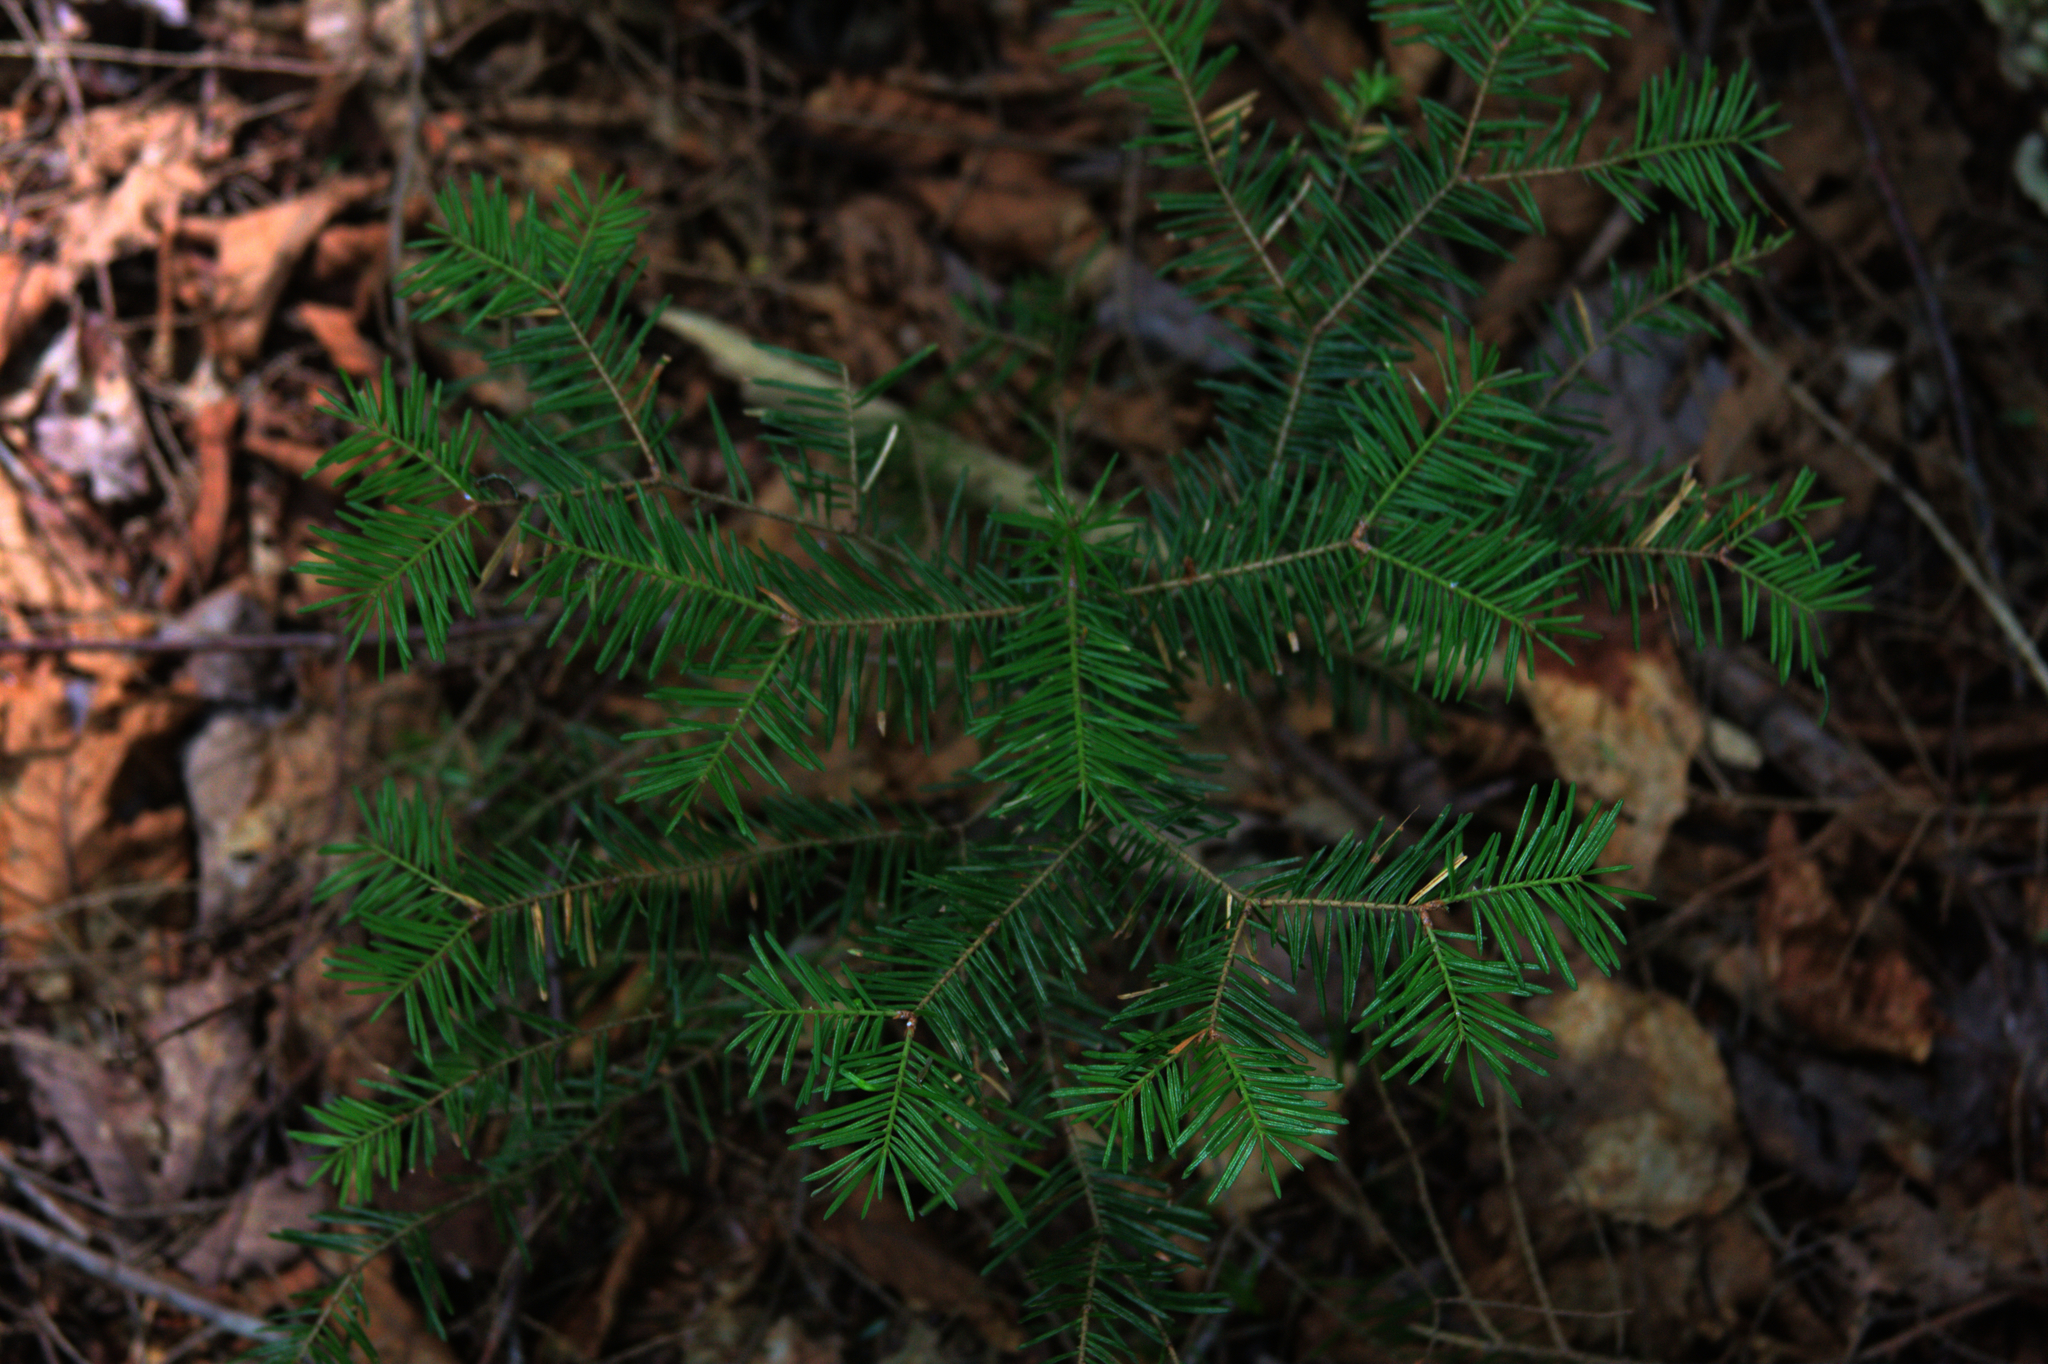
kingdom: Plantae
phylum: Tracheophyta
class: Pinopsida
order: Pinales
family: Pinaceae
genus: Abies
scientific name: Abies balsamea
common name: Balsam fir
